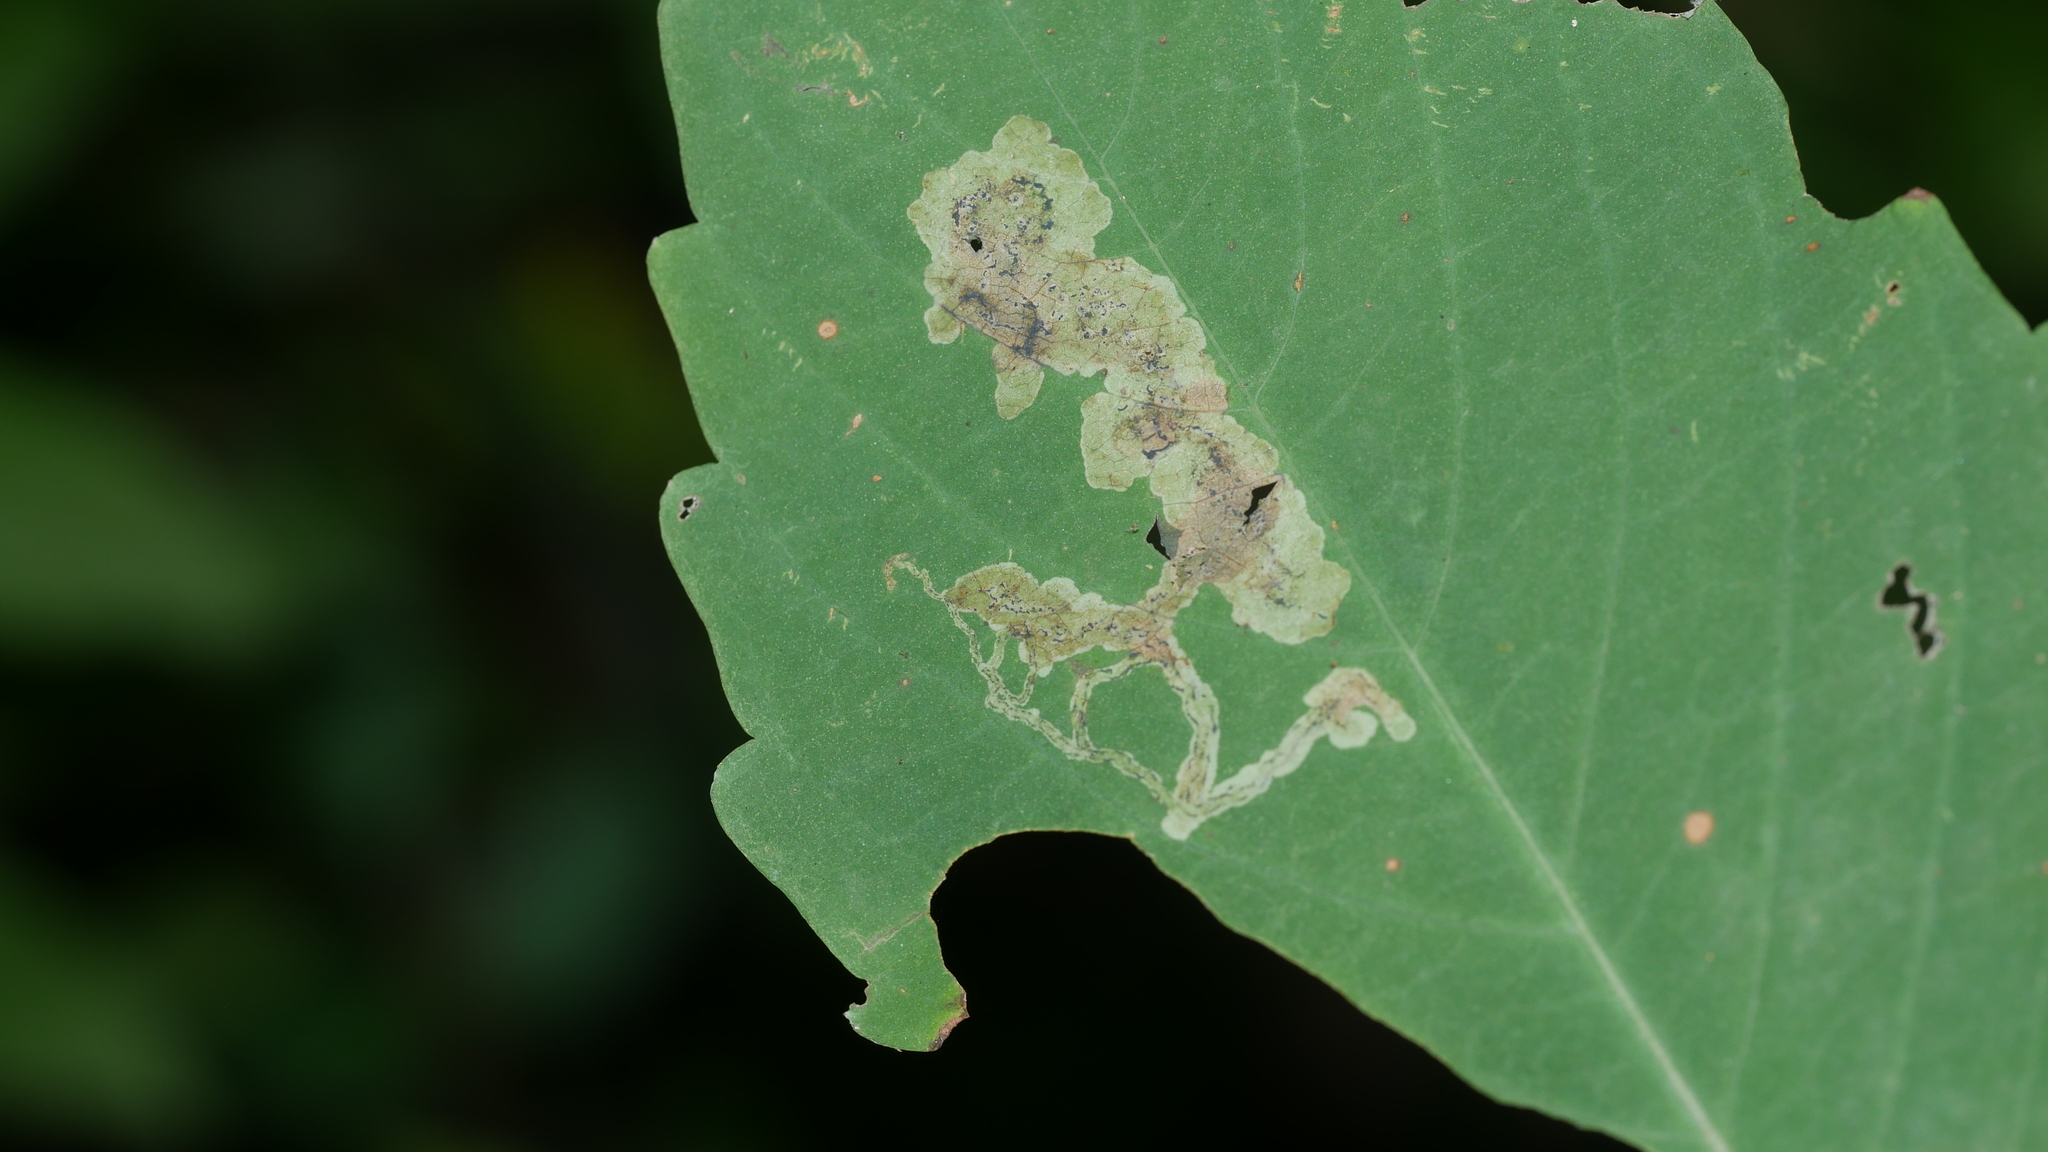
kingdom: Animalia
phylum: Arthropoda
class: Insecta
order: Diptera
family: Agromyzidae
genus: Phytoliriomyza
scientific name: Phytoliriomyza melampyga
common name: Jewelweed leaf-miner fly
